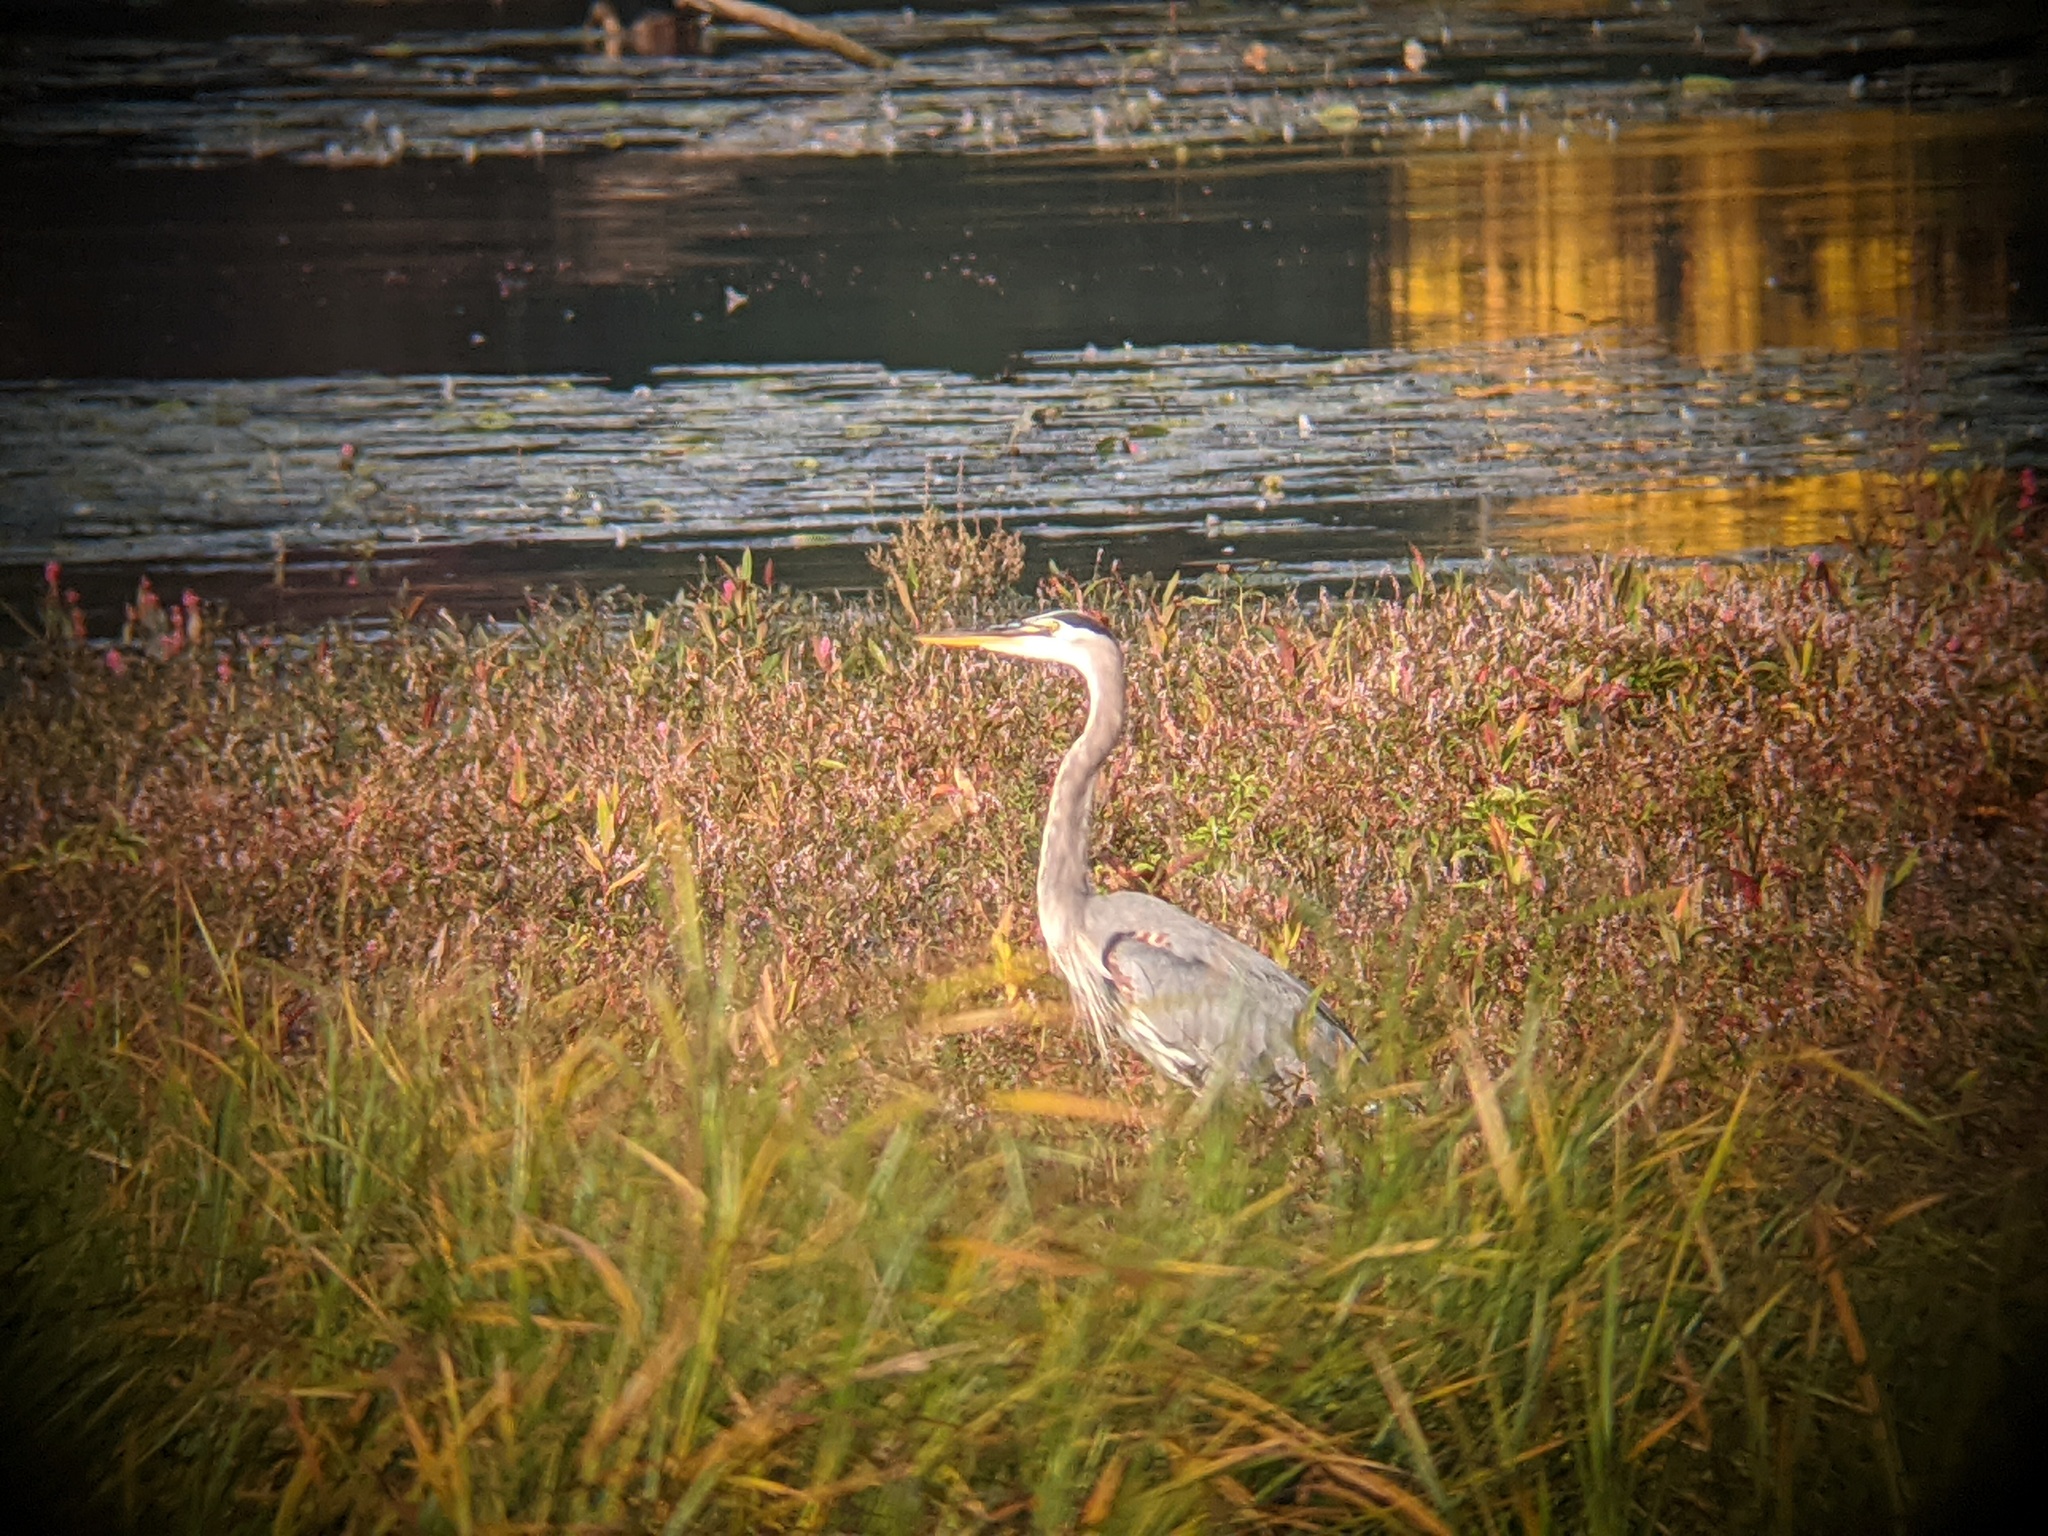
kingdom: Animalia
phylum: Chordata
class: Aves
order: Pelecaniformes
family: Ardeidae
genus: Ardea
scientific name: Ardea herodias
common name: Great blue heron
